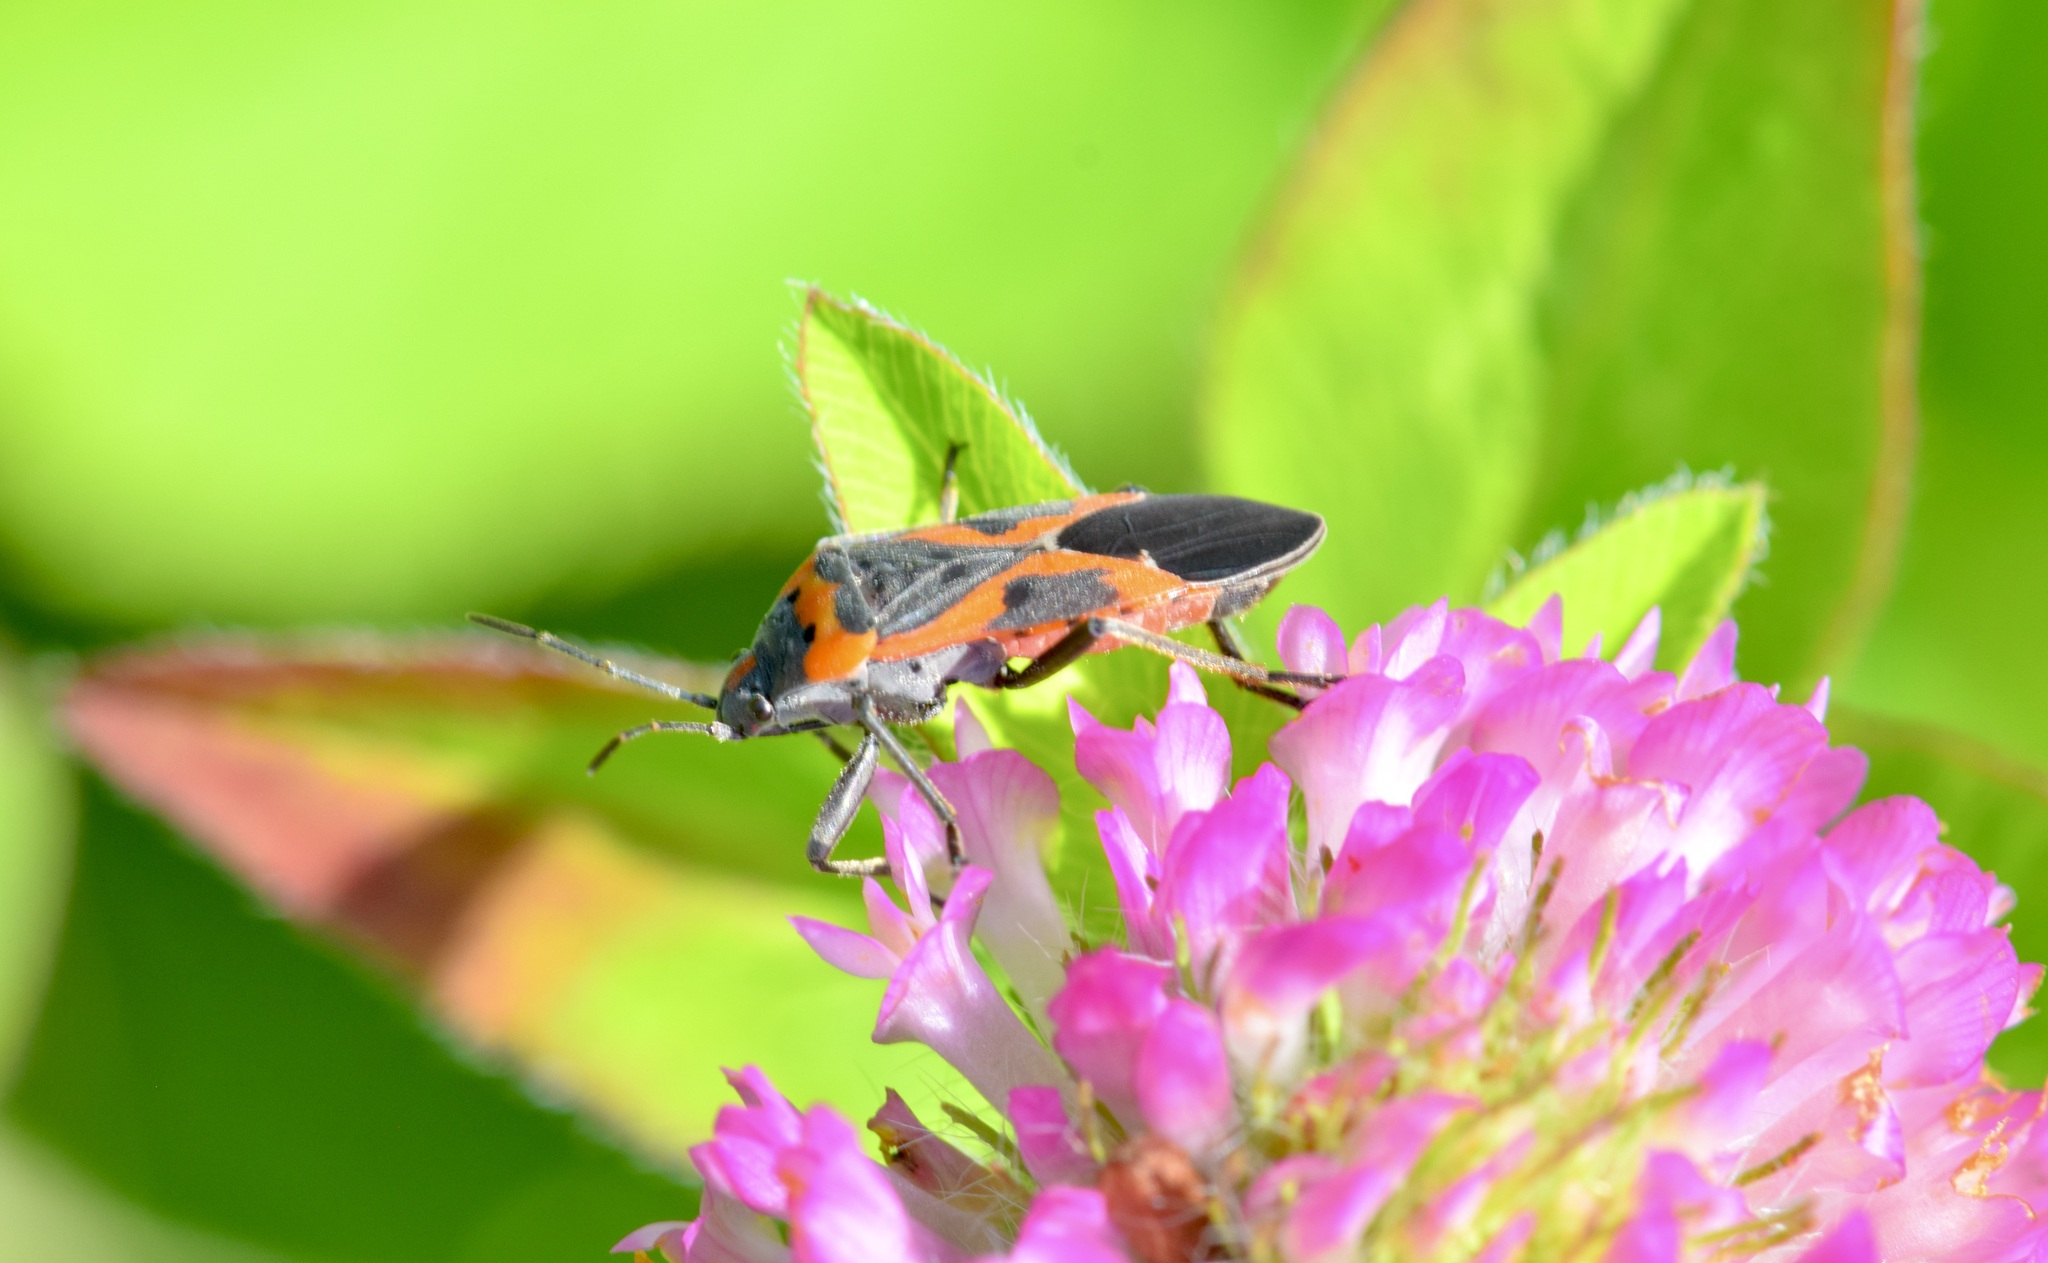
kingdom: Animalia
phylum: Arthropoda
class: Insecta
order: Hemiptera
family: Lygaeidae
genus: Lygaeus
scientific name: Lygaeus kalmii
